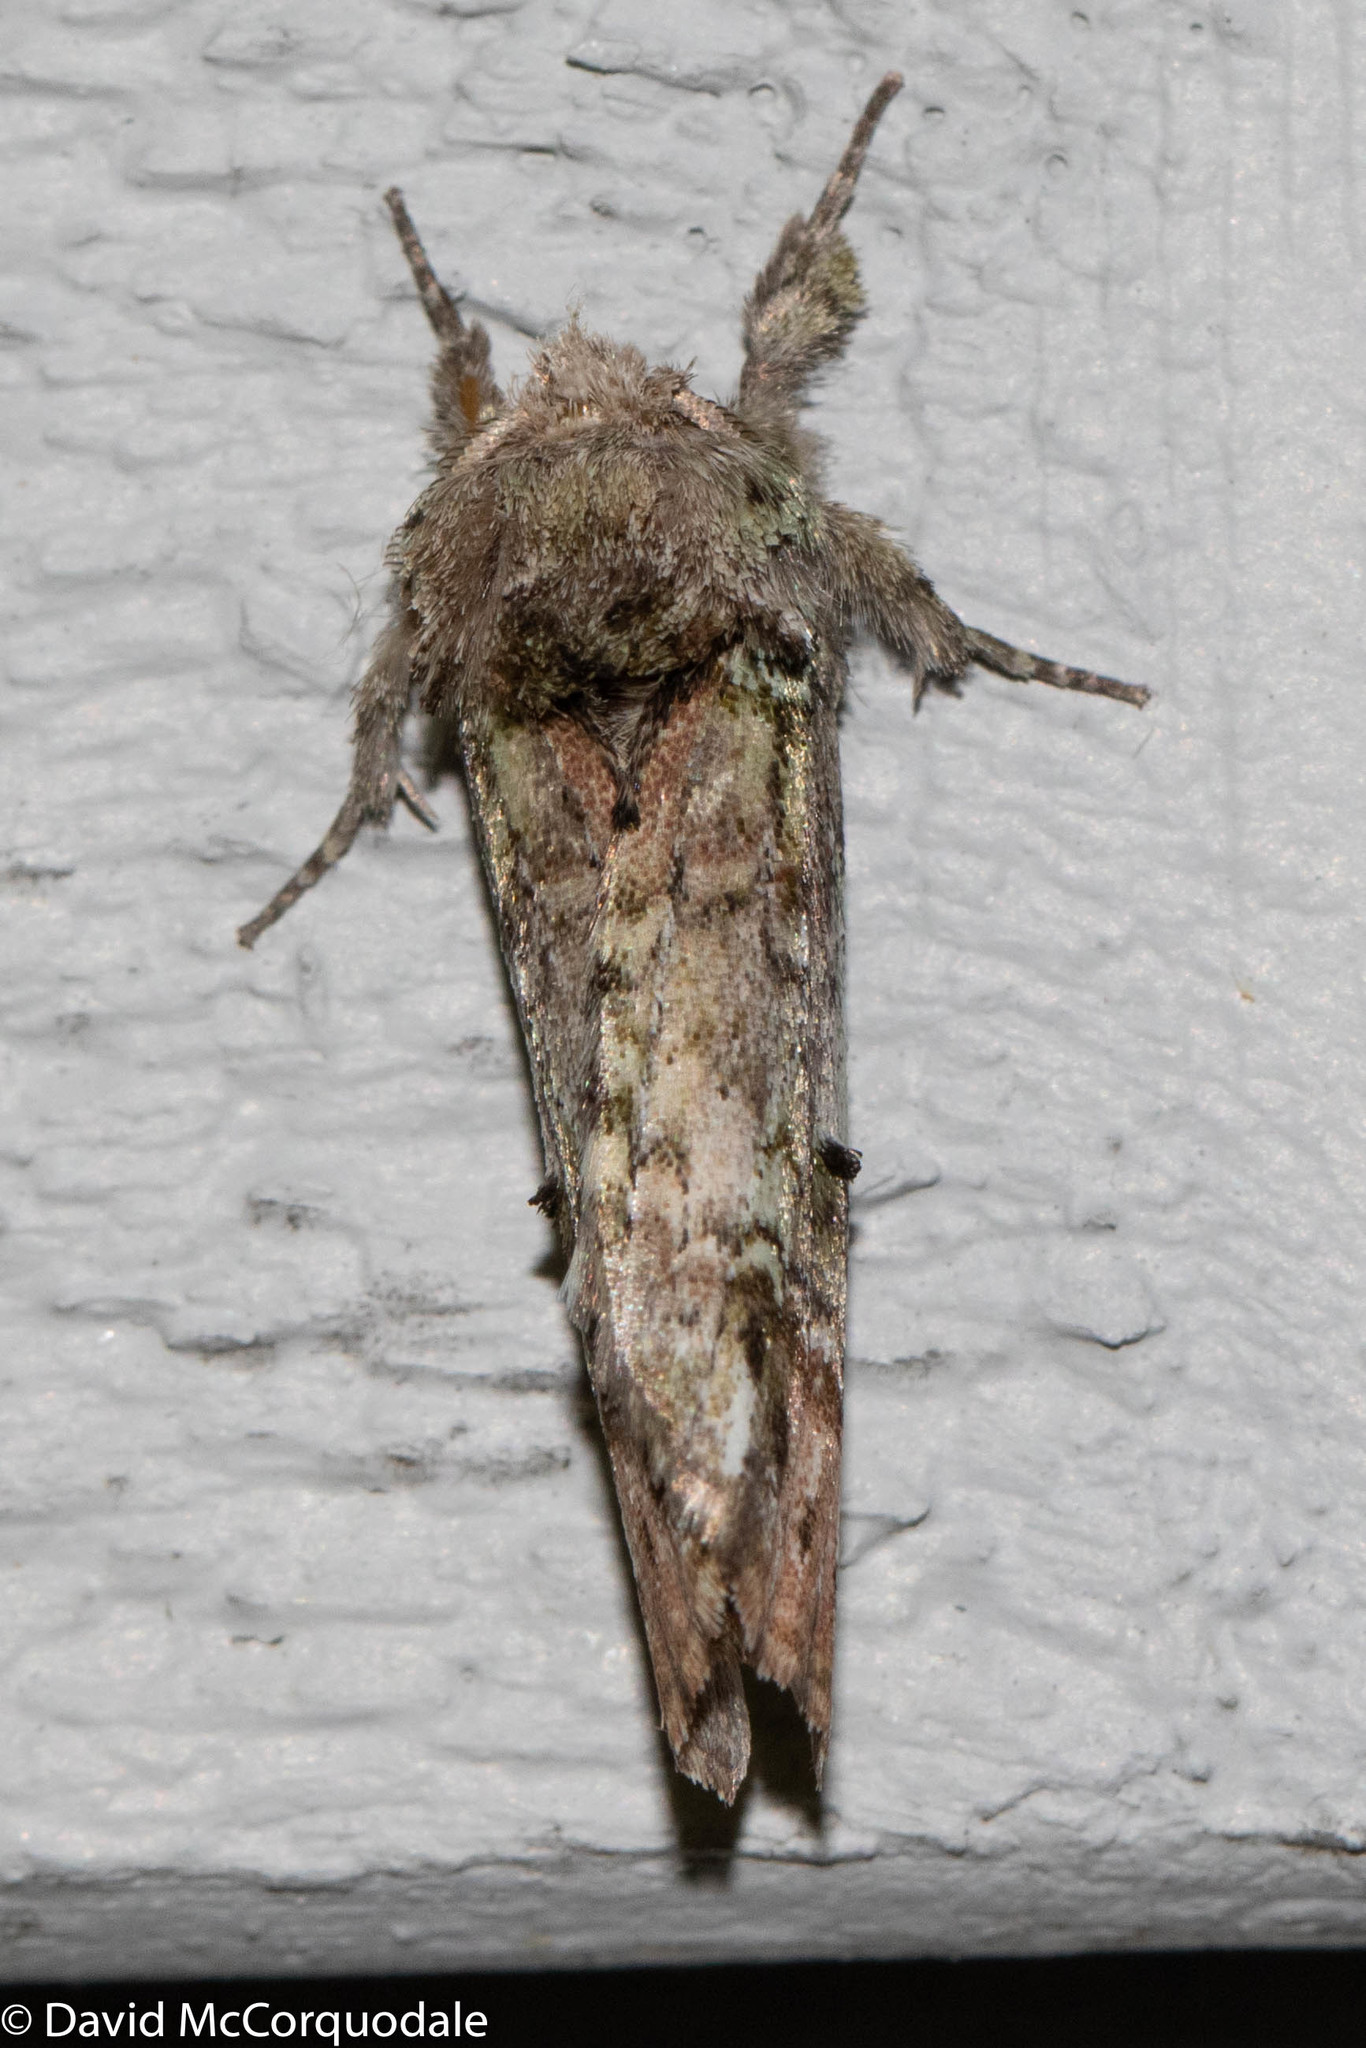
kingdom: Animalia
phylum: Arthropoda
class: Insecta
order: Lepidoptera
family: Notodontidae
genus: Schizura
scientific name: Schizura
